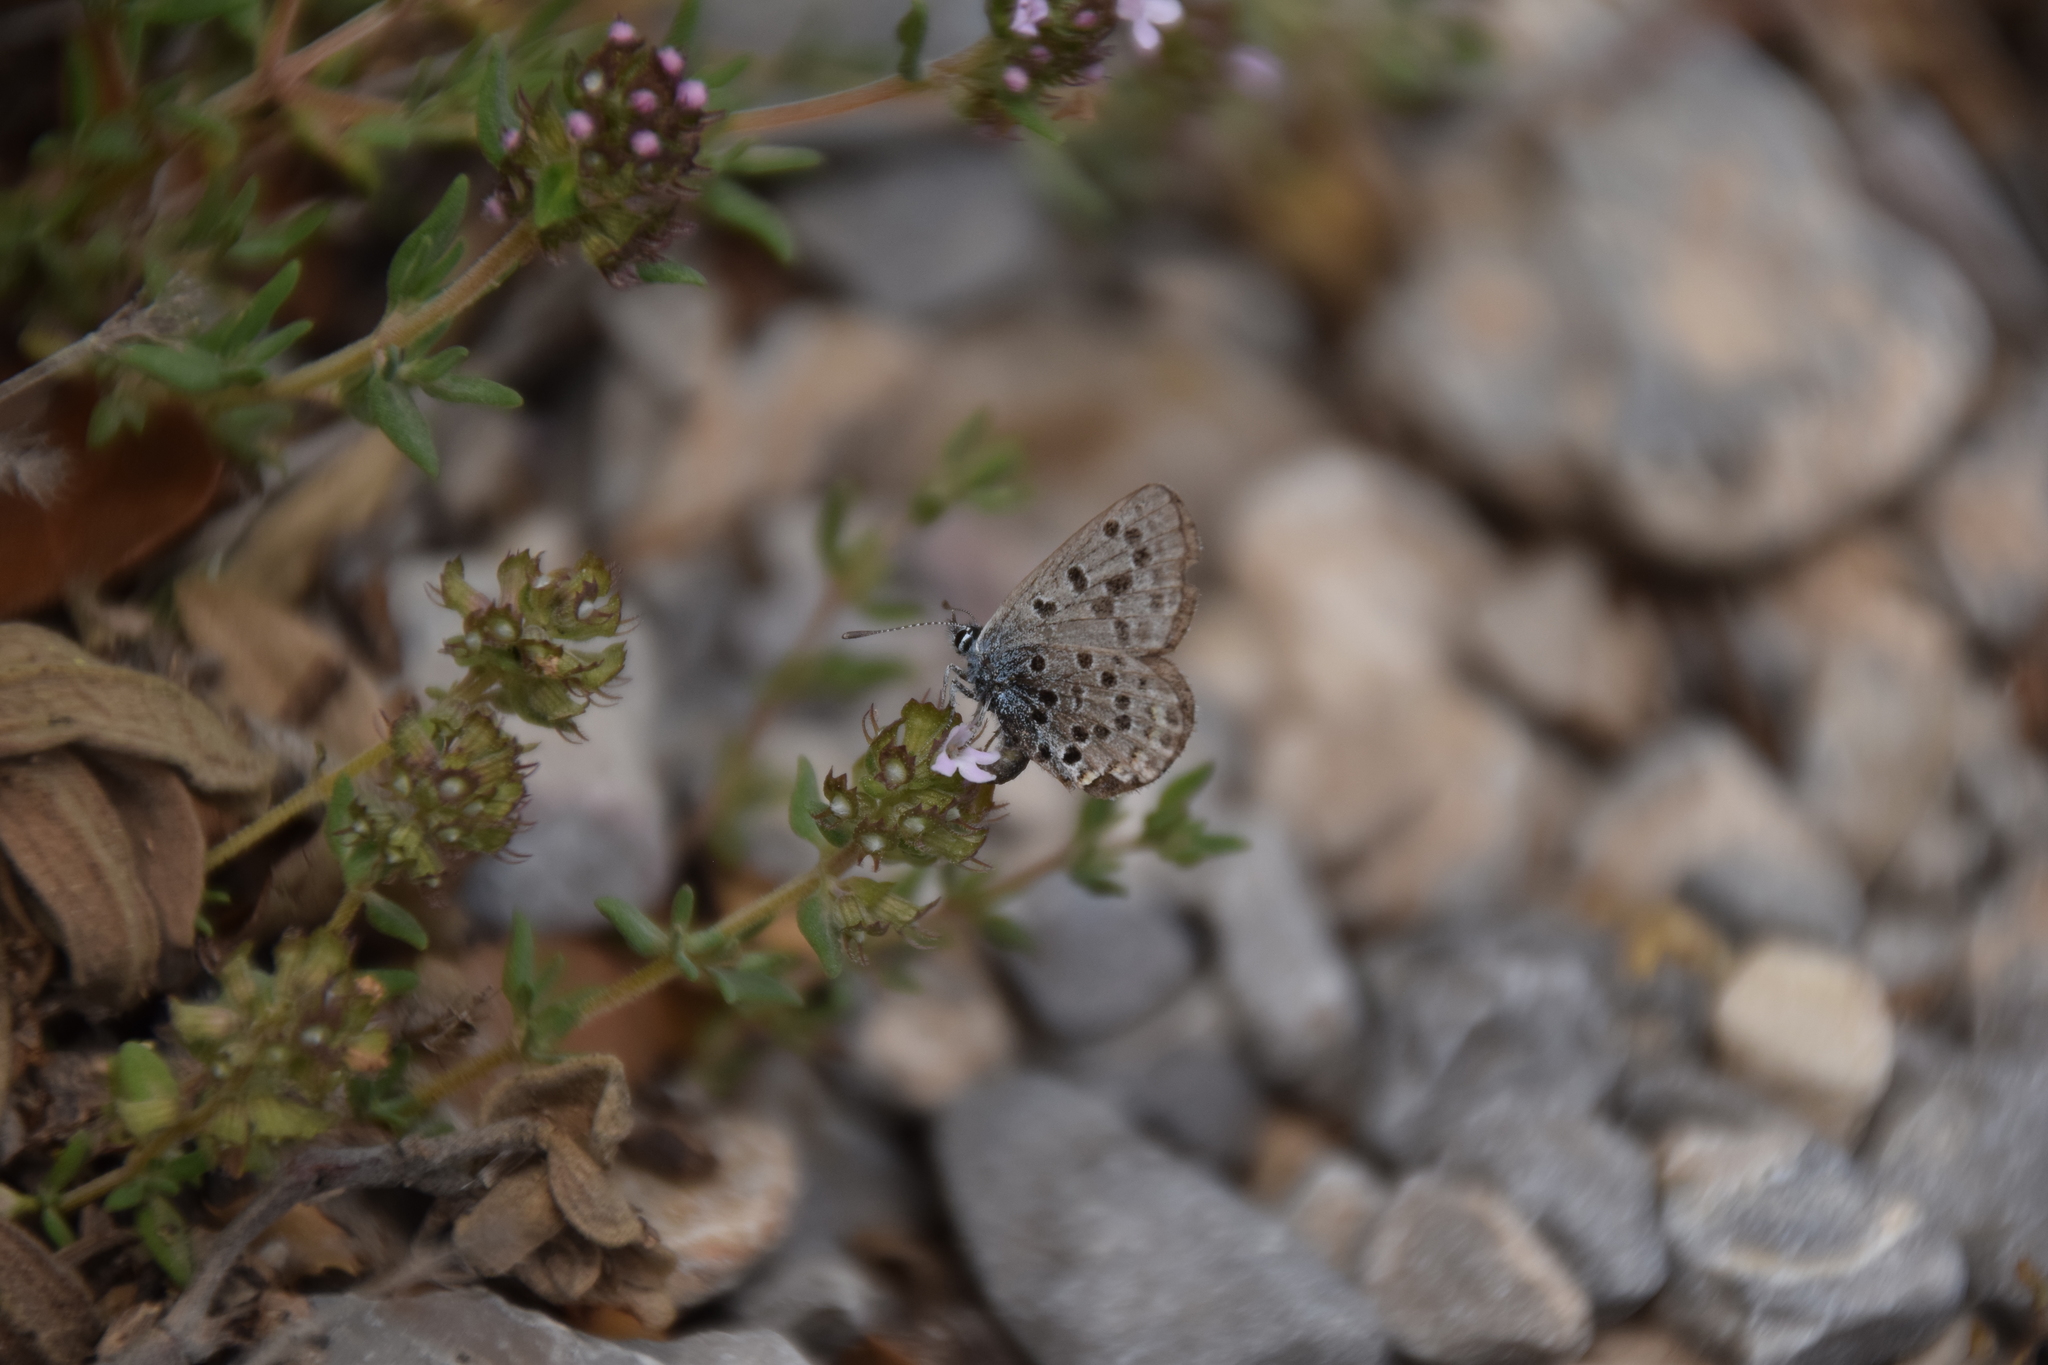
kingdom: Animalia
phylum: Arthropoda
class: Insecta
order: Lepidoptera
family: Lycaenidae
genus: Pseudophilotes
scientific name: Pseudophilotes baton
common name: Baton blue
